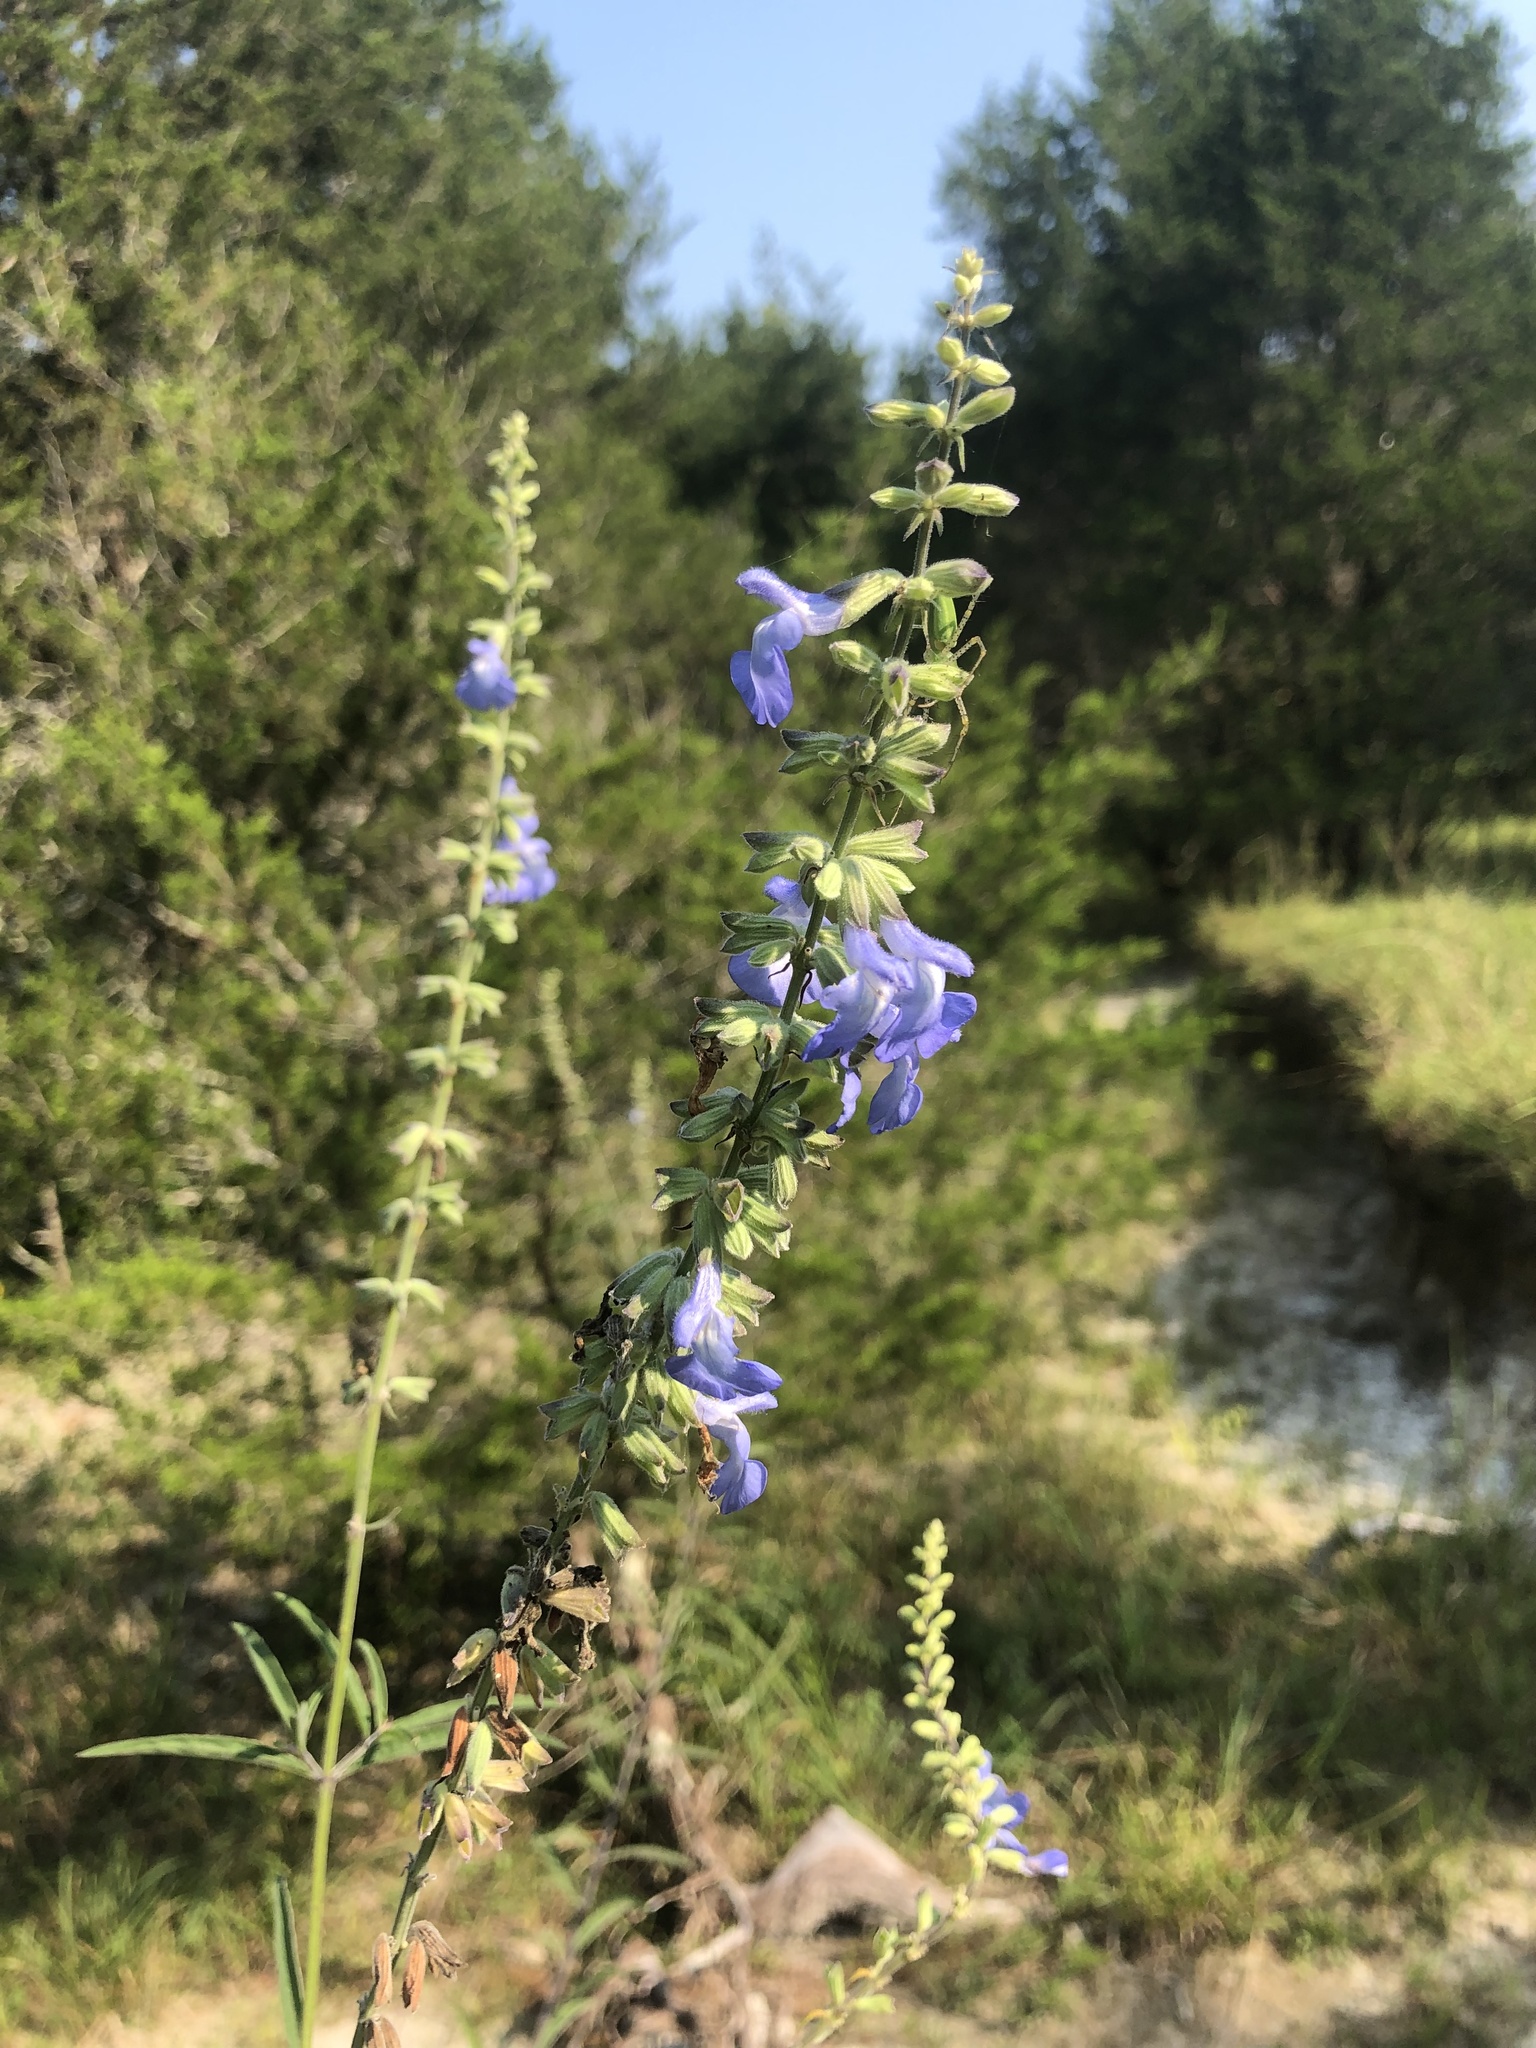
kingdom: Plantae
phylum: Tracheophyta
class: Magnoliopsida
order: Lamiales
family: Lamiaceae
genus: Salvia
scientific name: Salvia azurea
